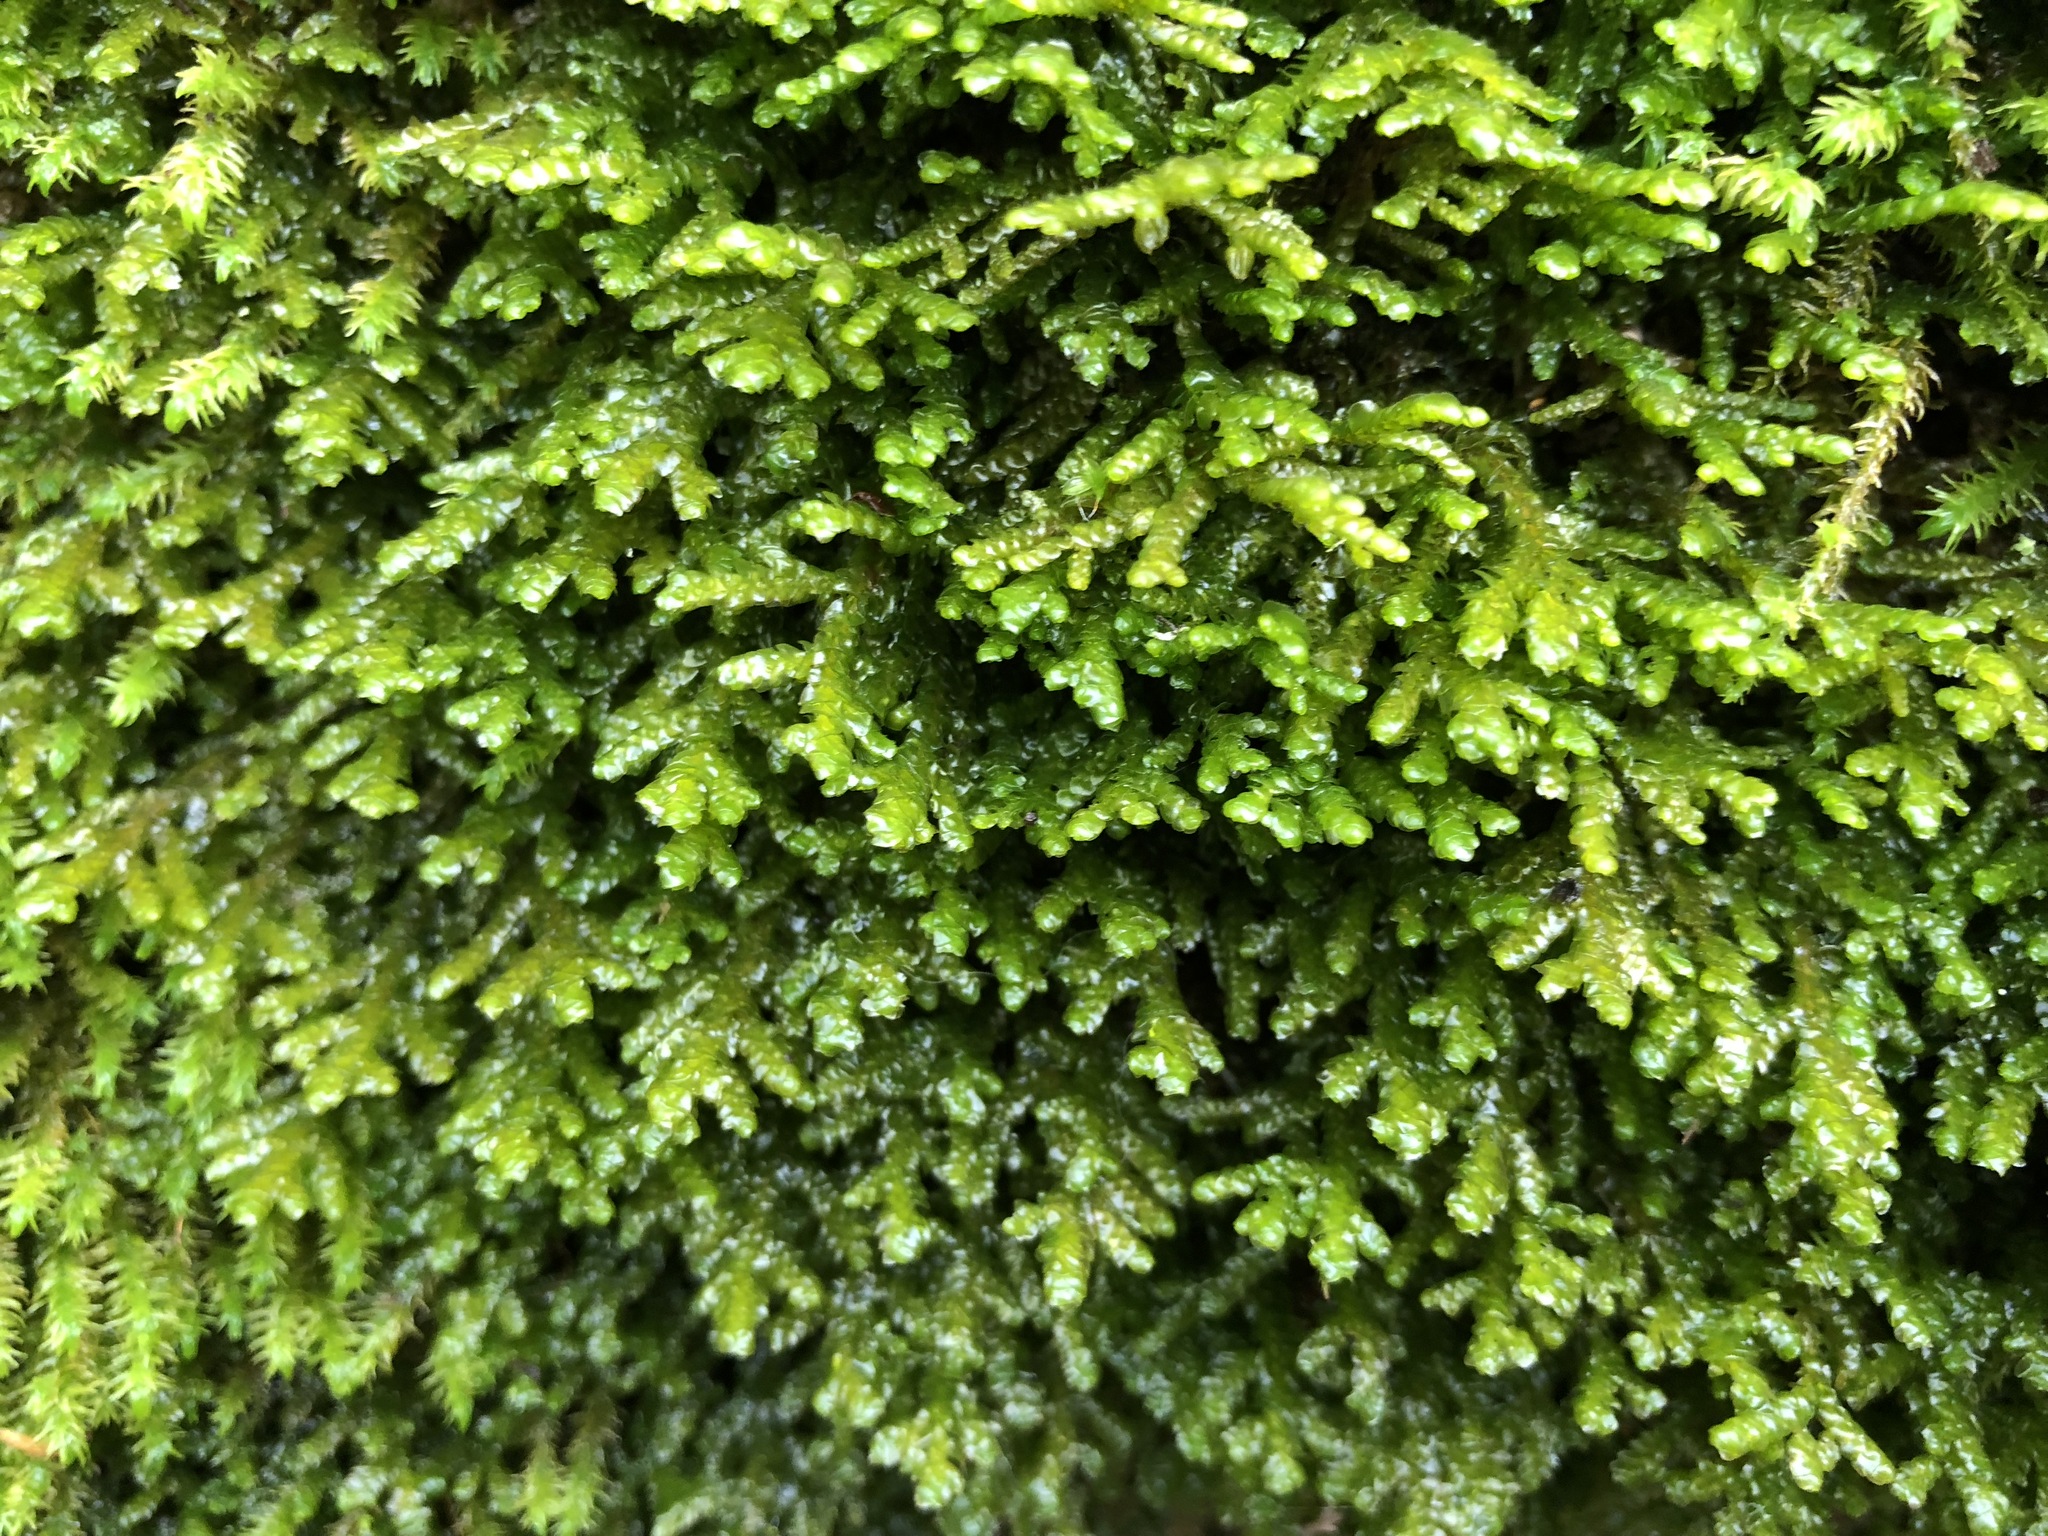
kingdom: Plantae
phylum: Marchantiophyta
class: Jungermanniopsida
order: Porellales
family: Porellaceae
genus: Porella
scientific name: Porella platyphylla
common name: Wall scalewort
